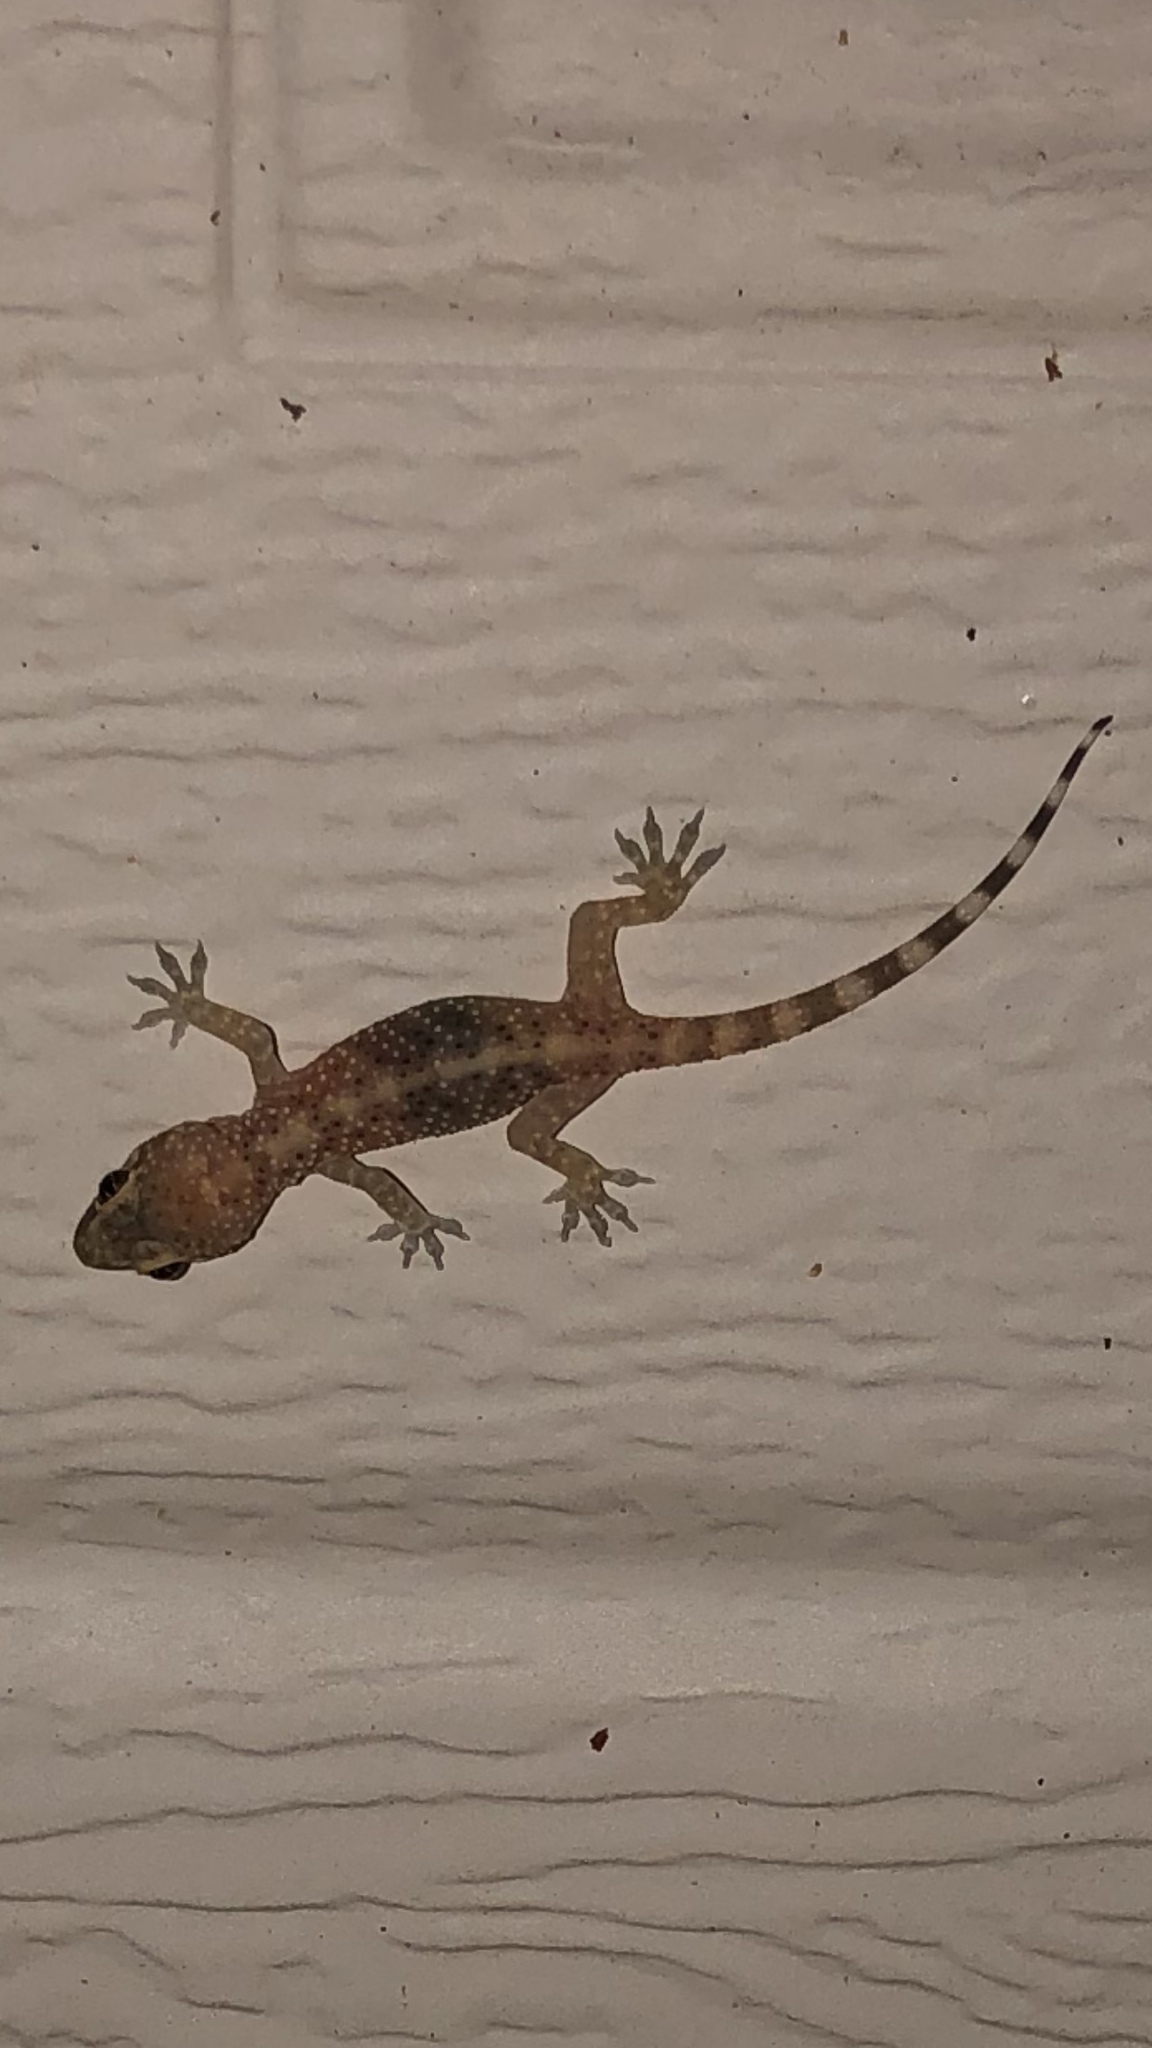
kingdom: Animalia
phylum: Chordata
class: Squamata
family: Gekkonidae
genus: Hemidactylus
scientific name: Hemidactylus turcicus
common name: Turkish gecko
